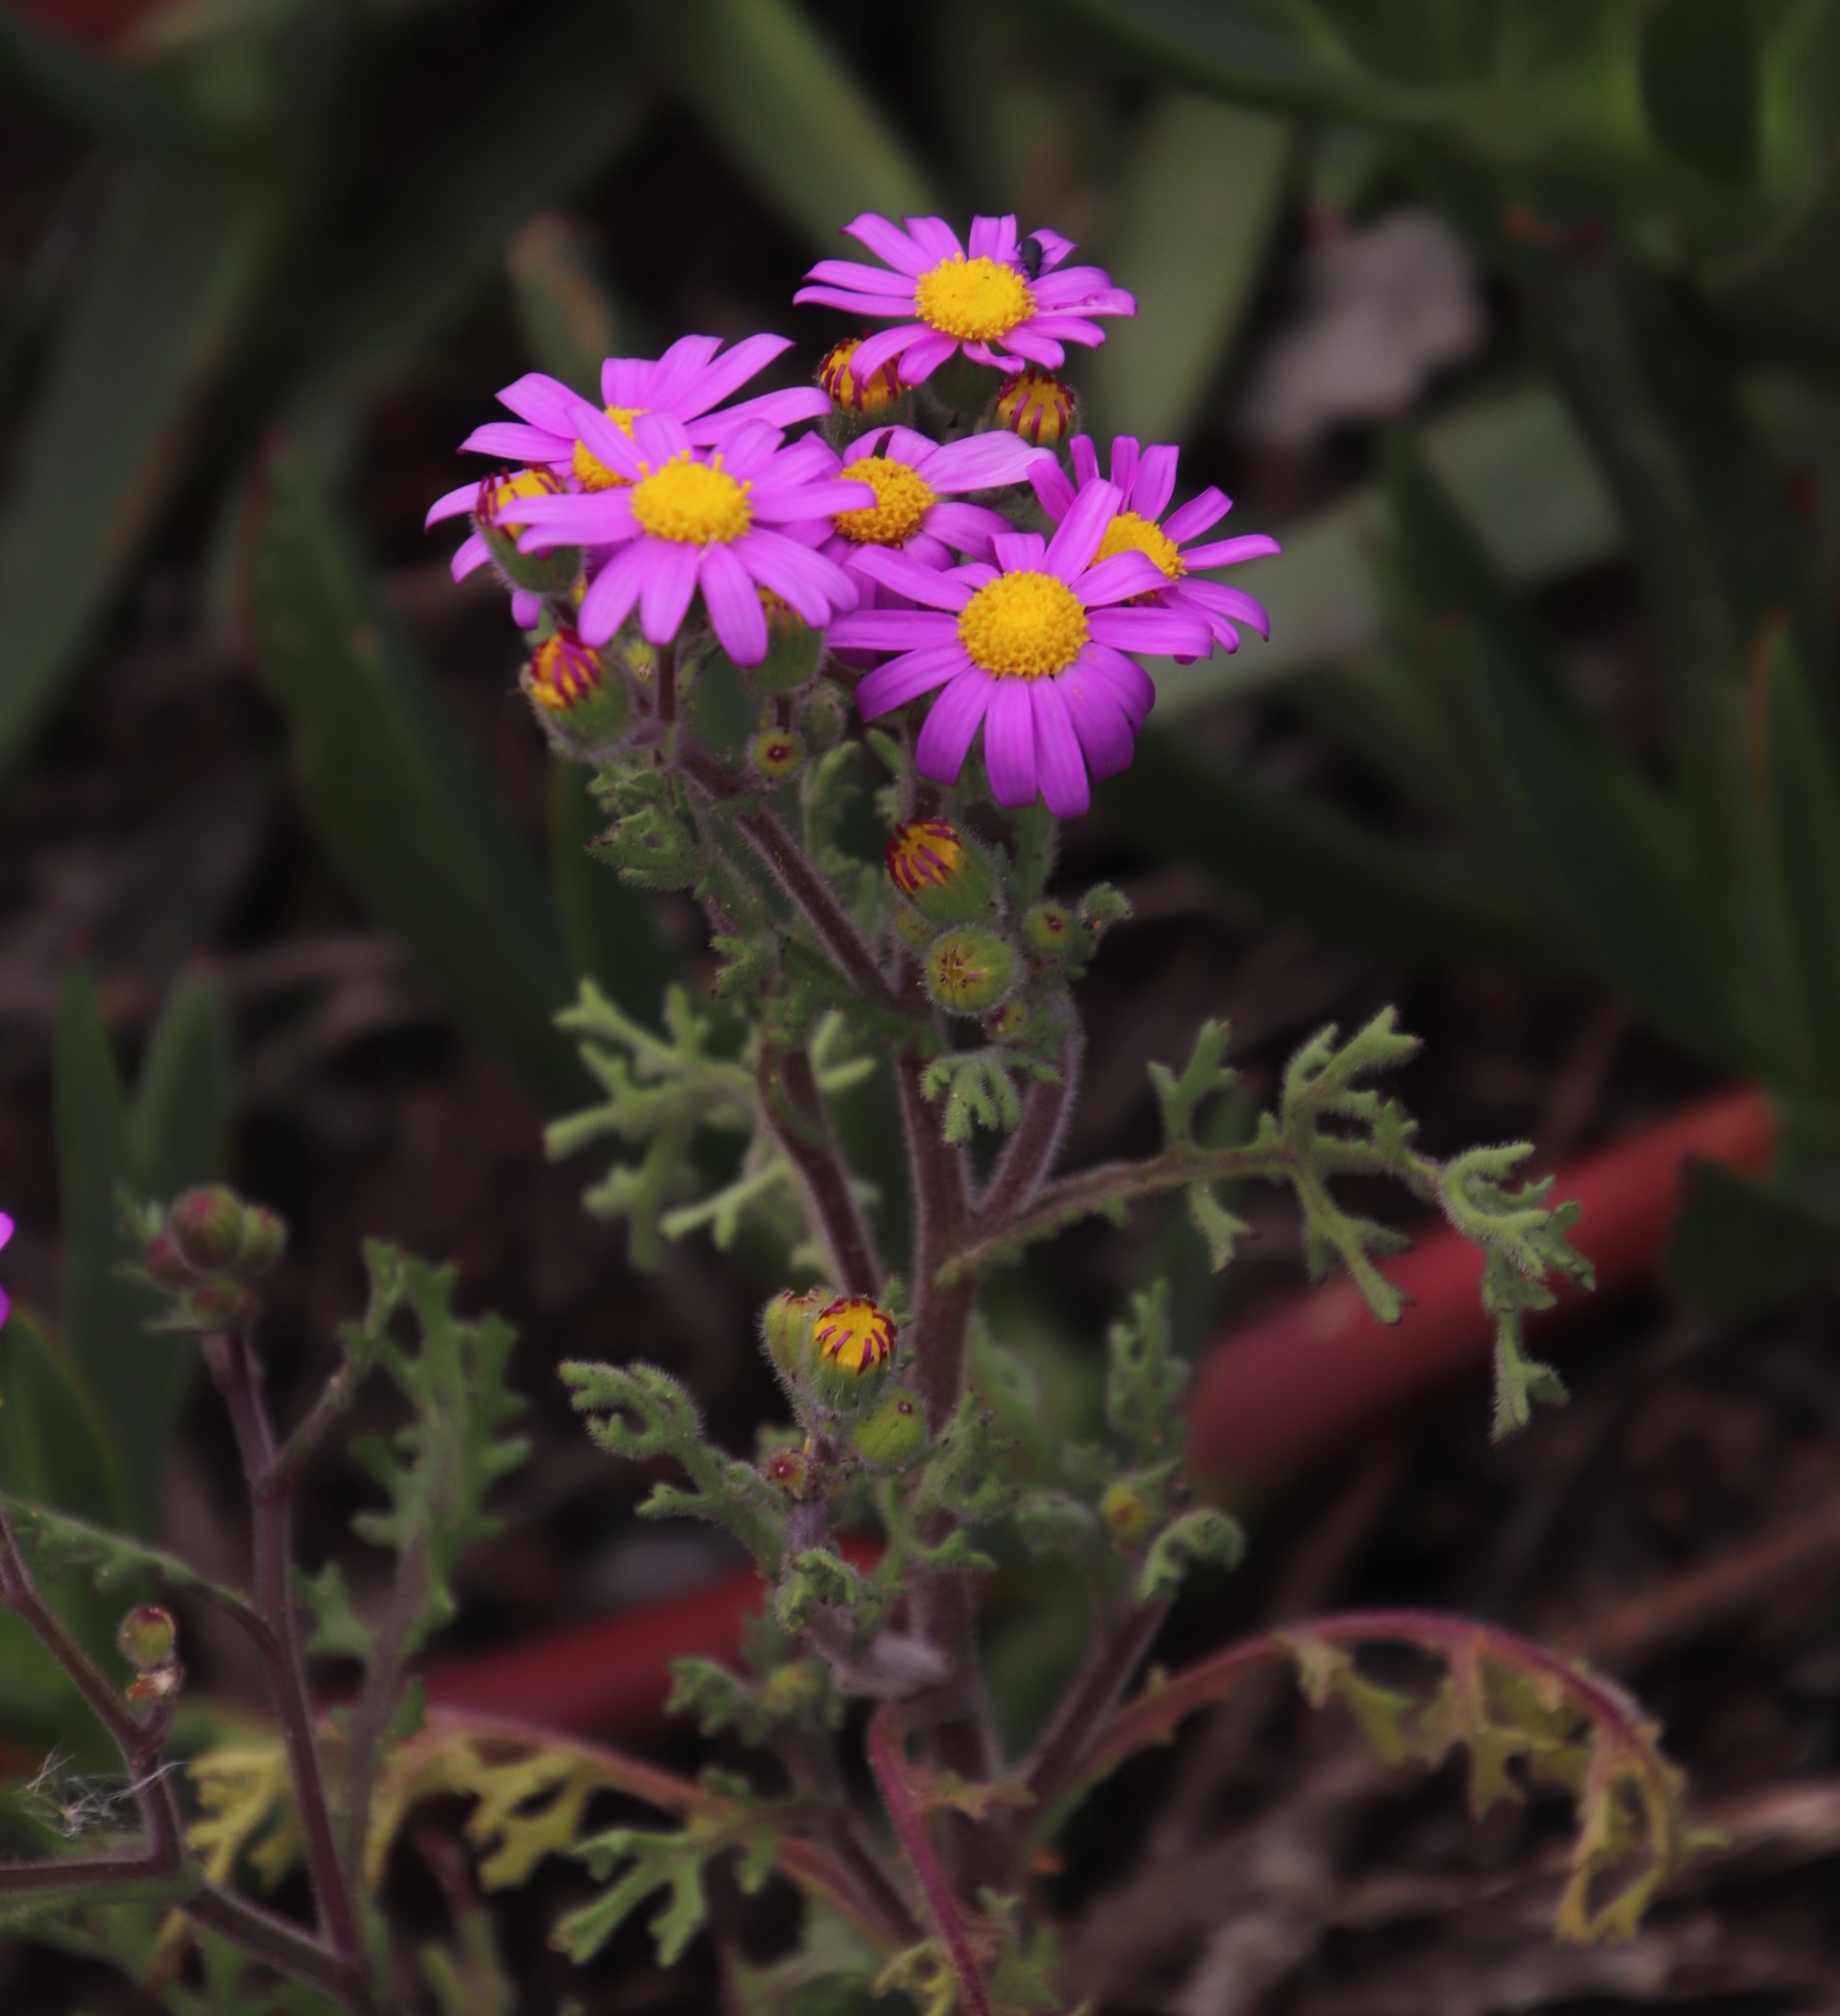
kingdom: Plantae
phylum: Tracheophyta
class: Magnoliopsida
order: Asterales
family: Asteraceae
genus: Senecio
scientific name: Senecio arenarius
